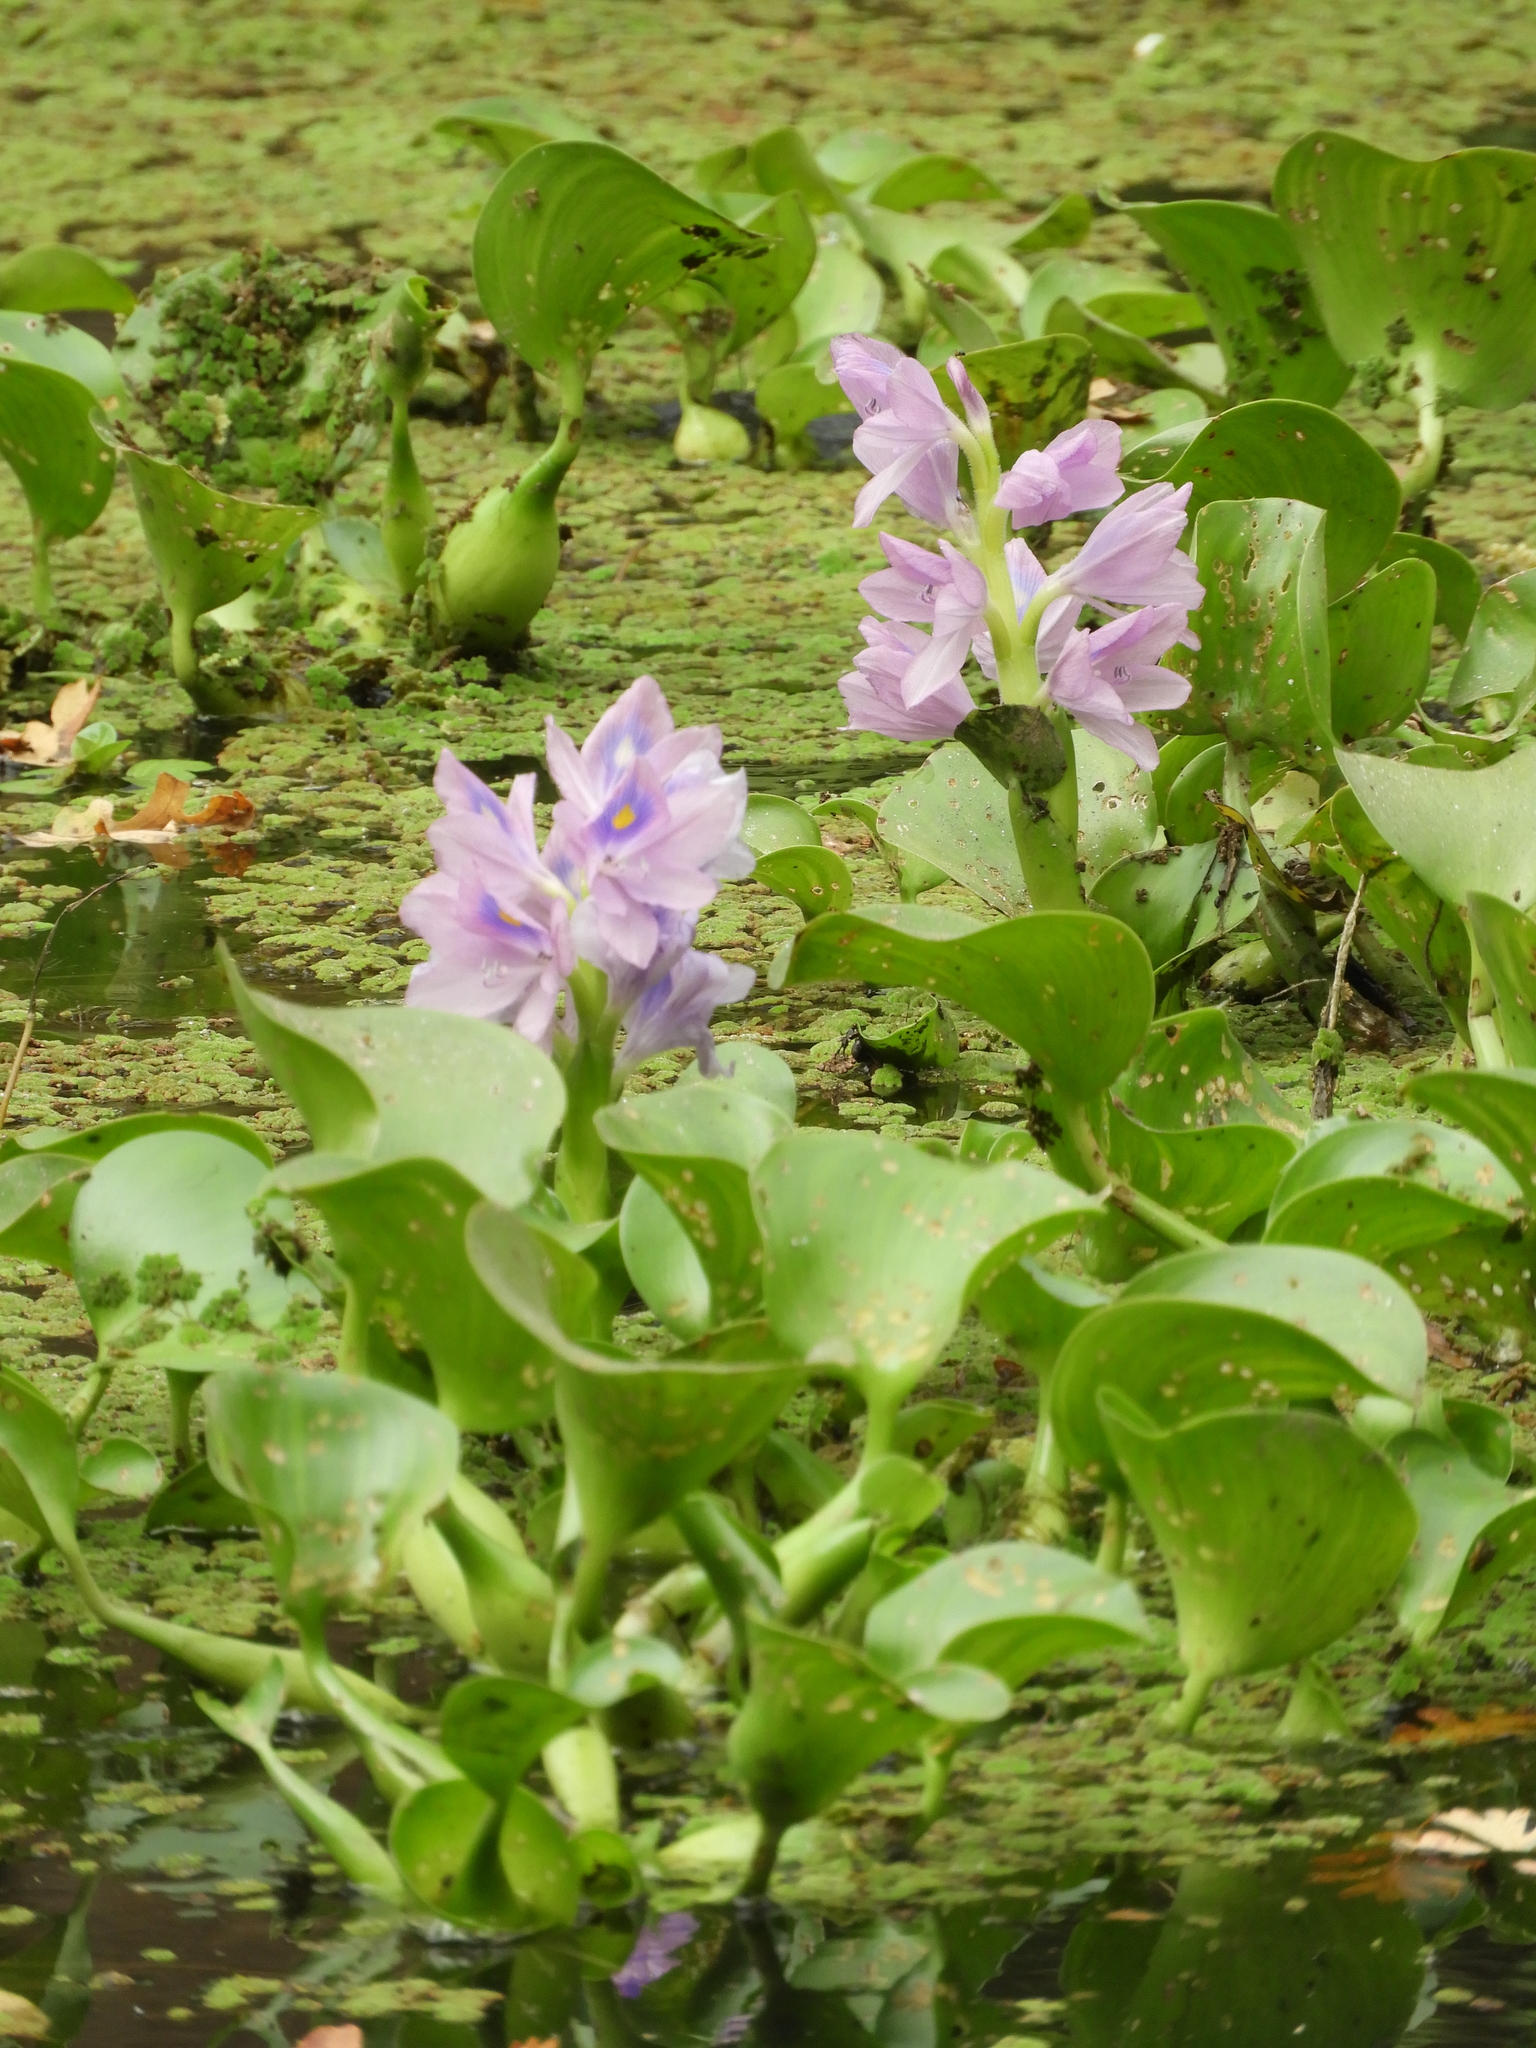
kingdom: Plantae
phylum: Tracheophyta
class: Liliopsida
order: Commelinales
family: Pontederiaceae
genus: Pontederia
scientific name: Pontederia crassipes
